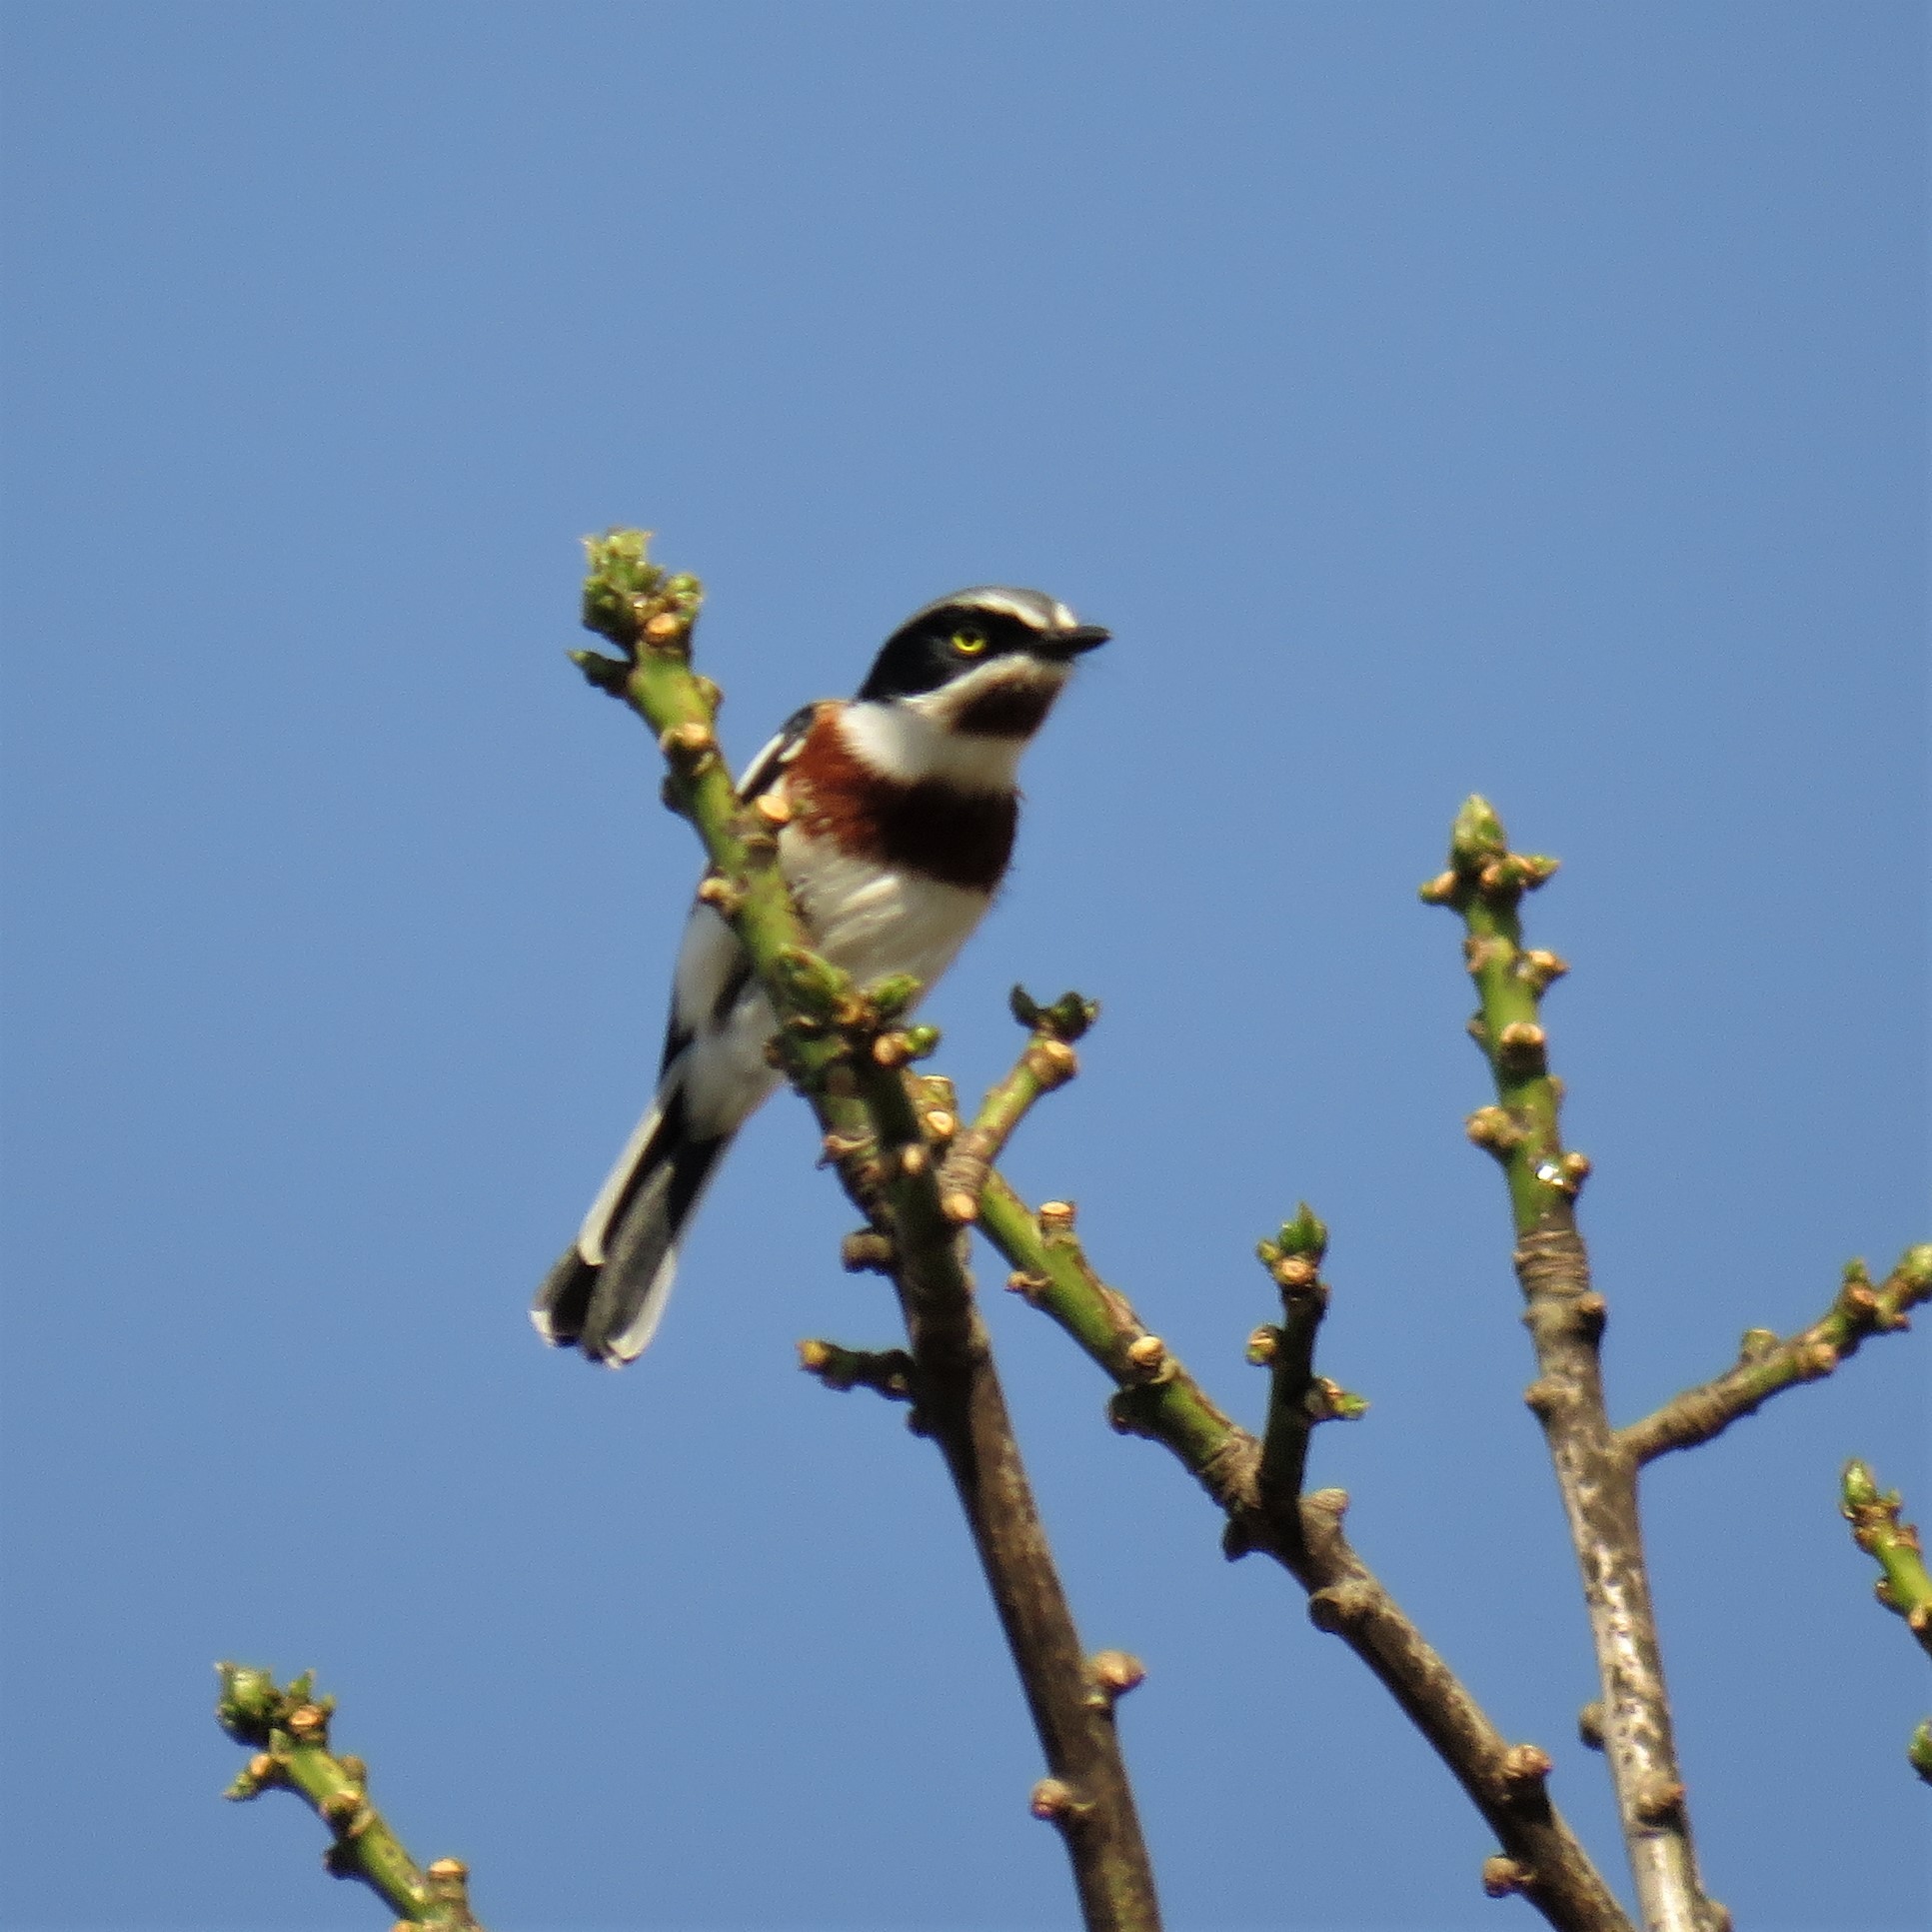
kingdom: Animalia
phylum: Chordata
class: Aves
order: Passeriformes
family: Platysteiridae
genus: Batis
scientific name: Batis molitor
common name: Chinspot batis
